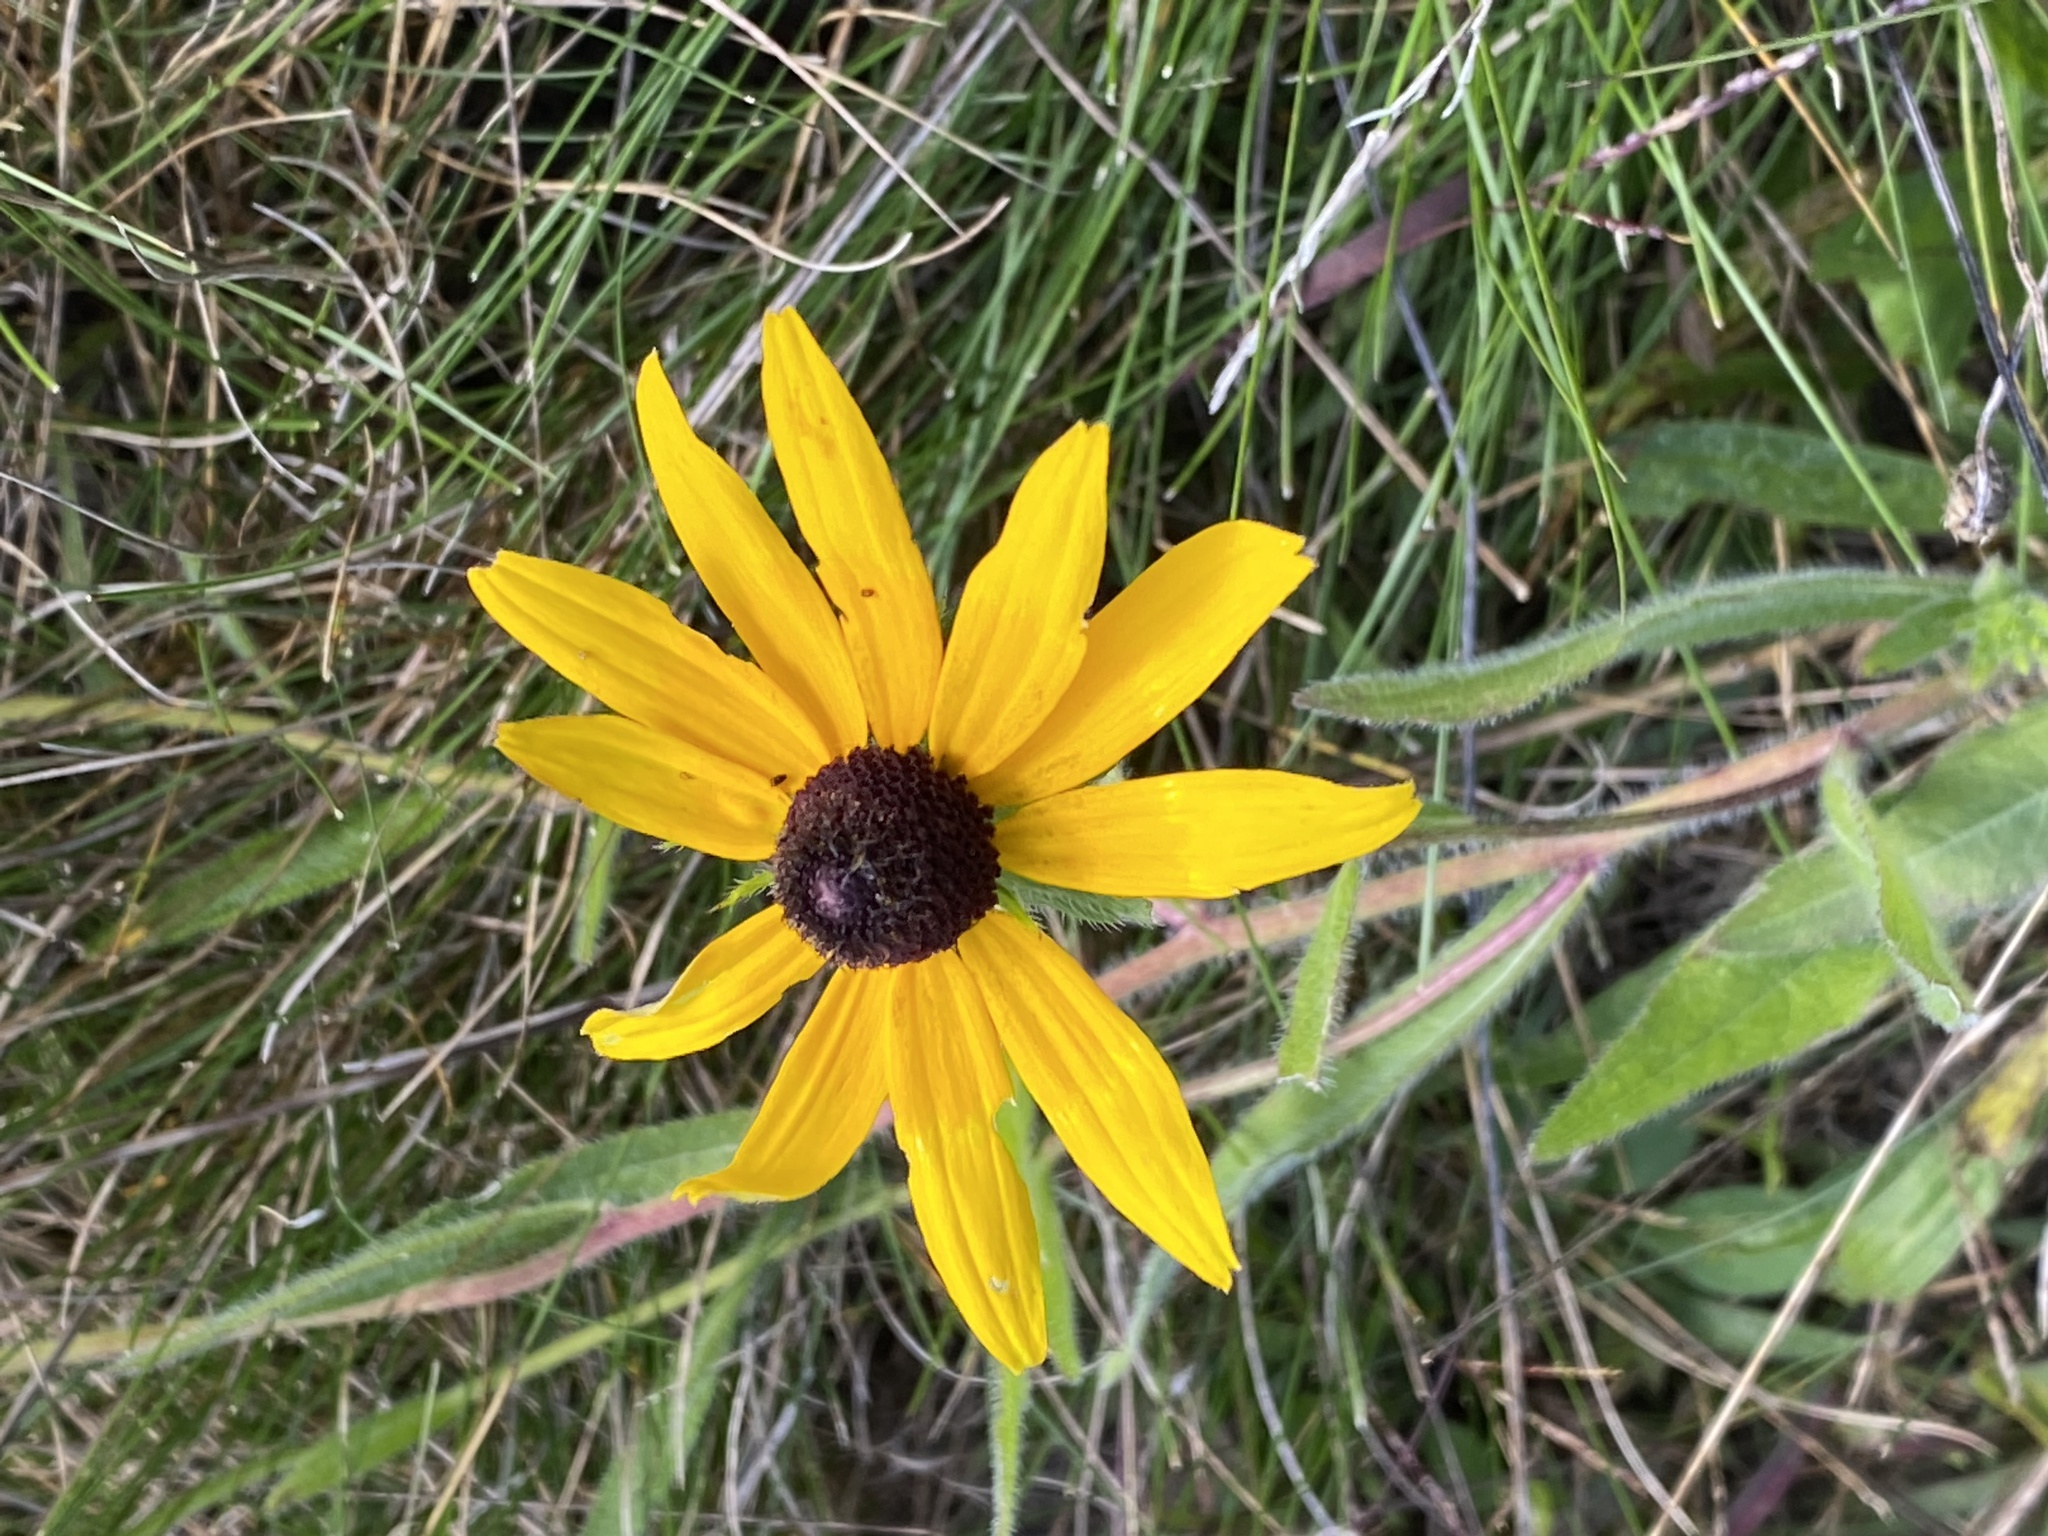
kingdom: Plantae
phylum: Tracheophyta
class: Magnoliopsida
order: Asterales
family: Asteraceae
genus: Rudbeckia
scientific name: Rudbeckia hirta
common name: Black-eyed-susan
